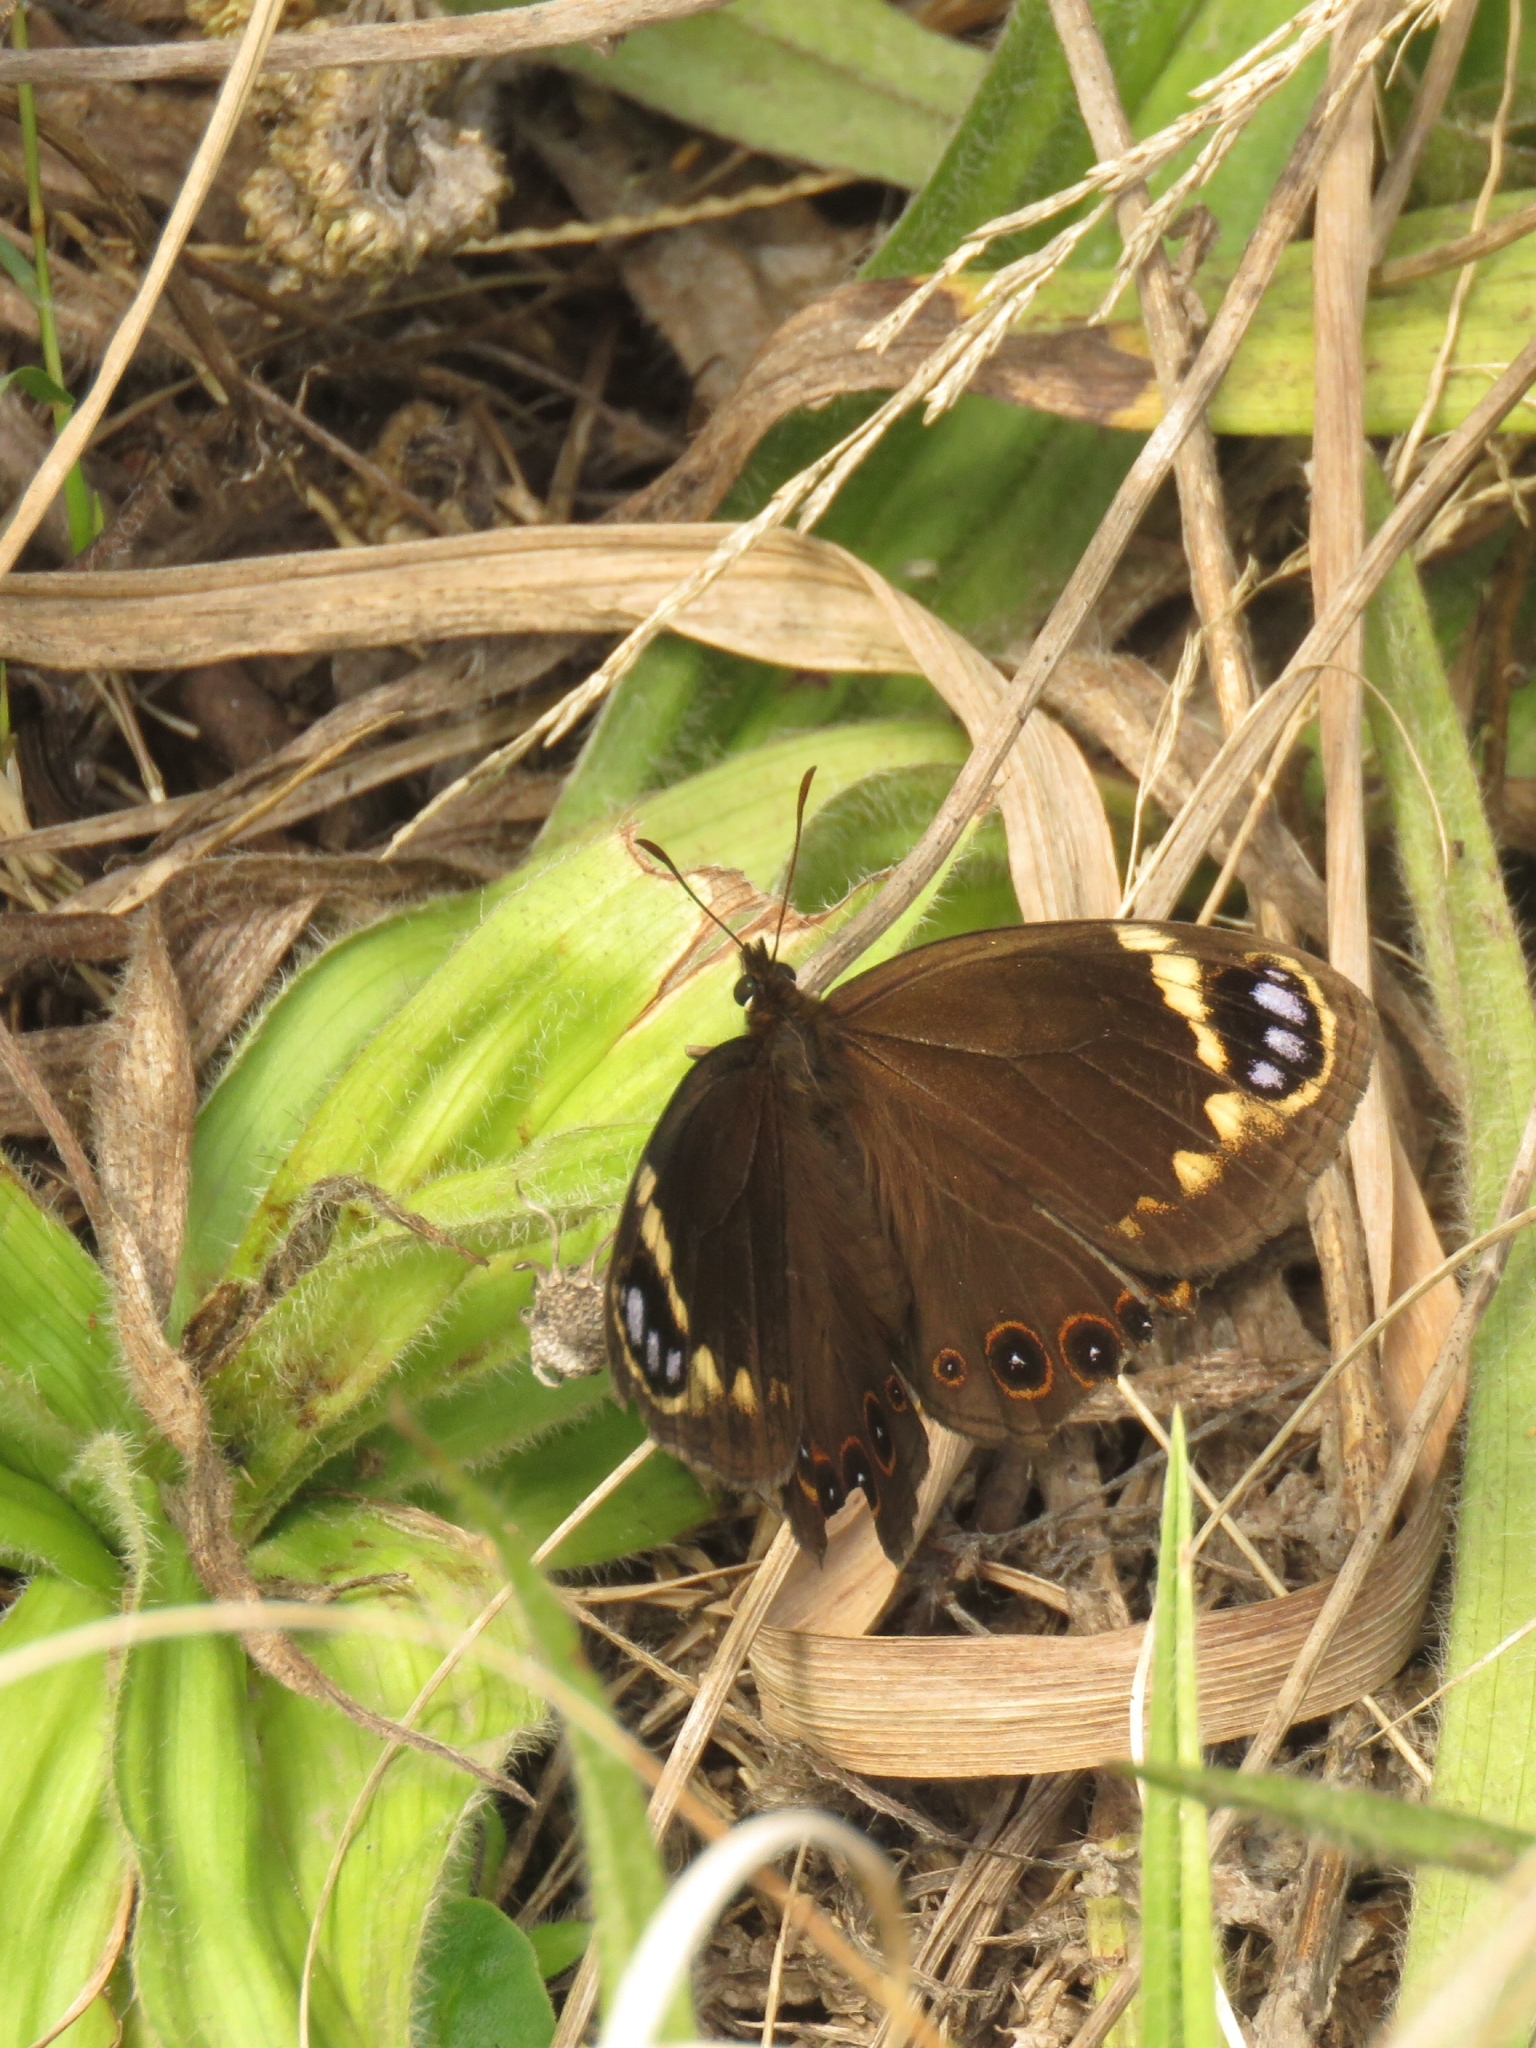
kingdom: Animalia
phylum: Arthropoda
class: Insecta
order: Lepidoptera
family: Nymphalidae
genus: Dira
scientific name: Dira clytus
